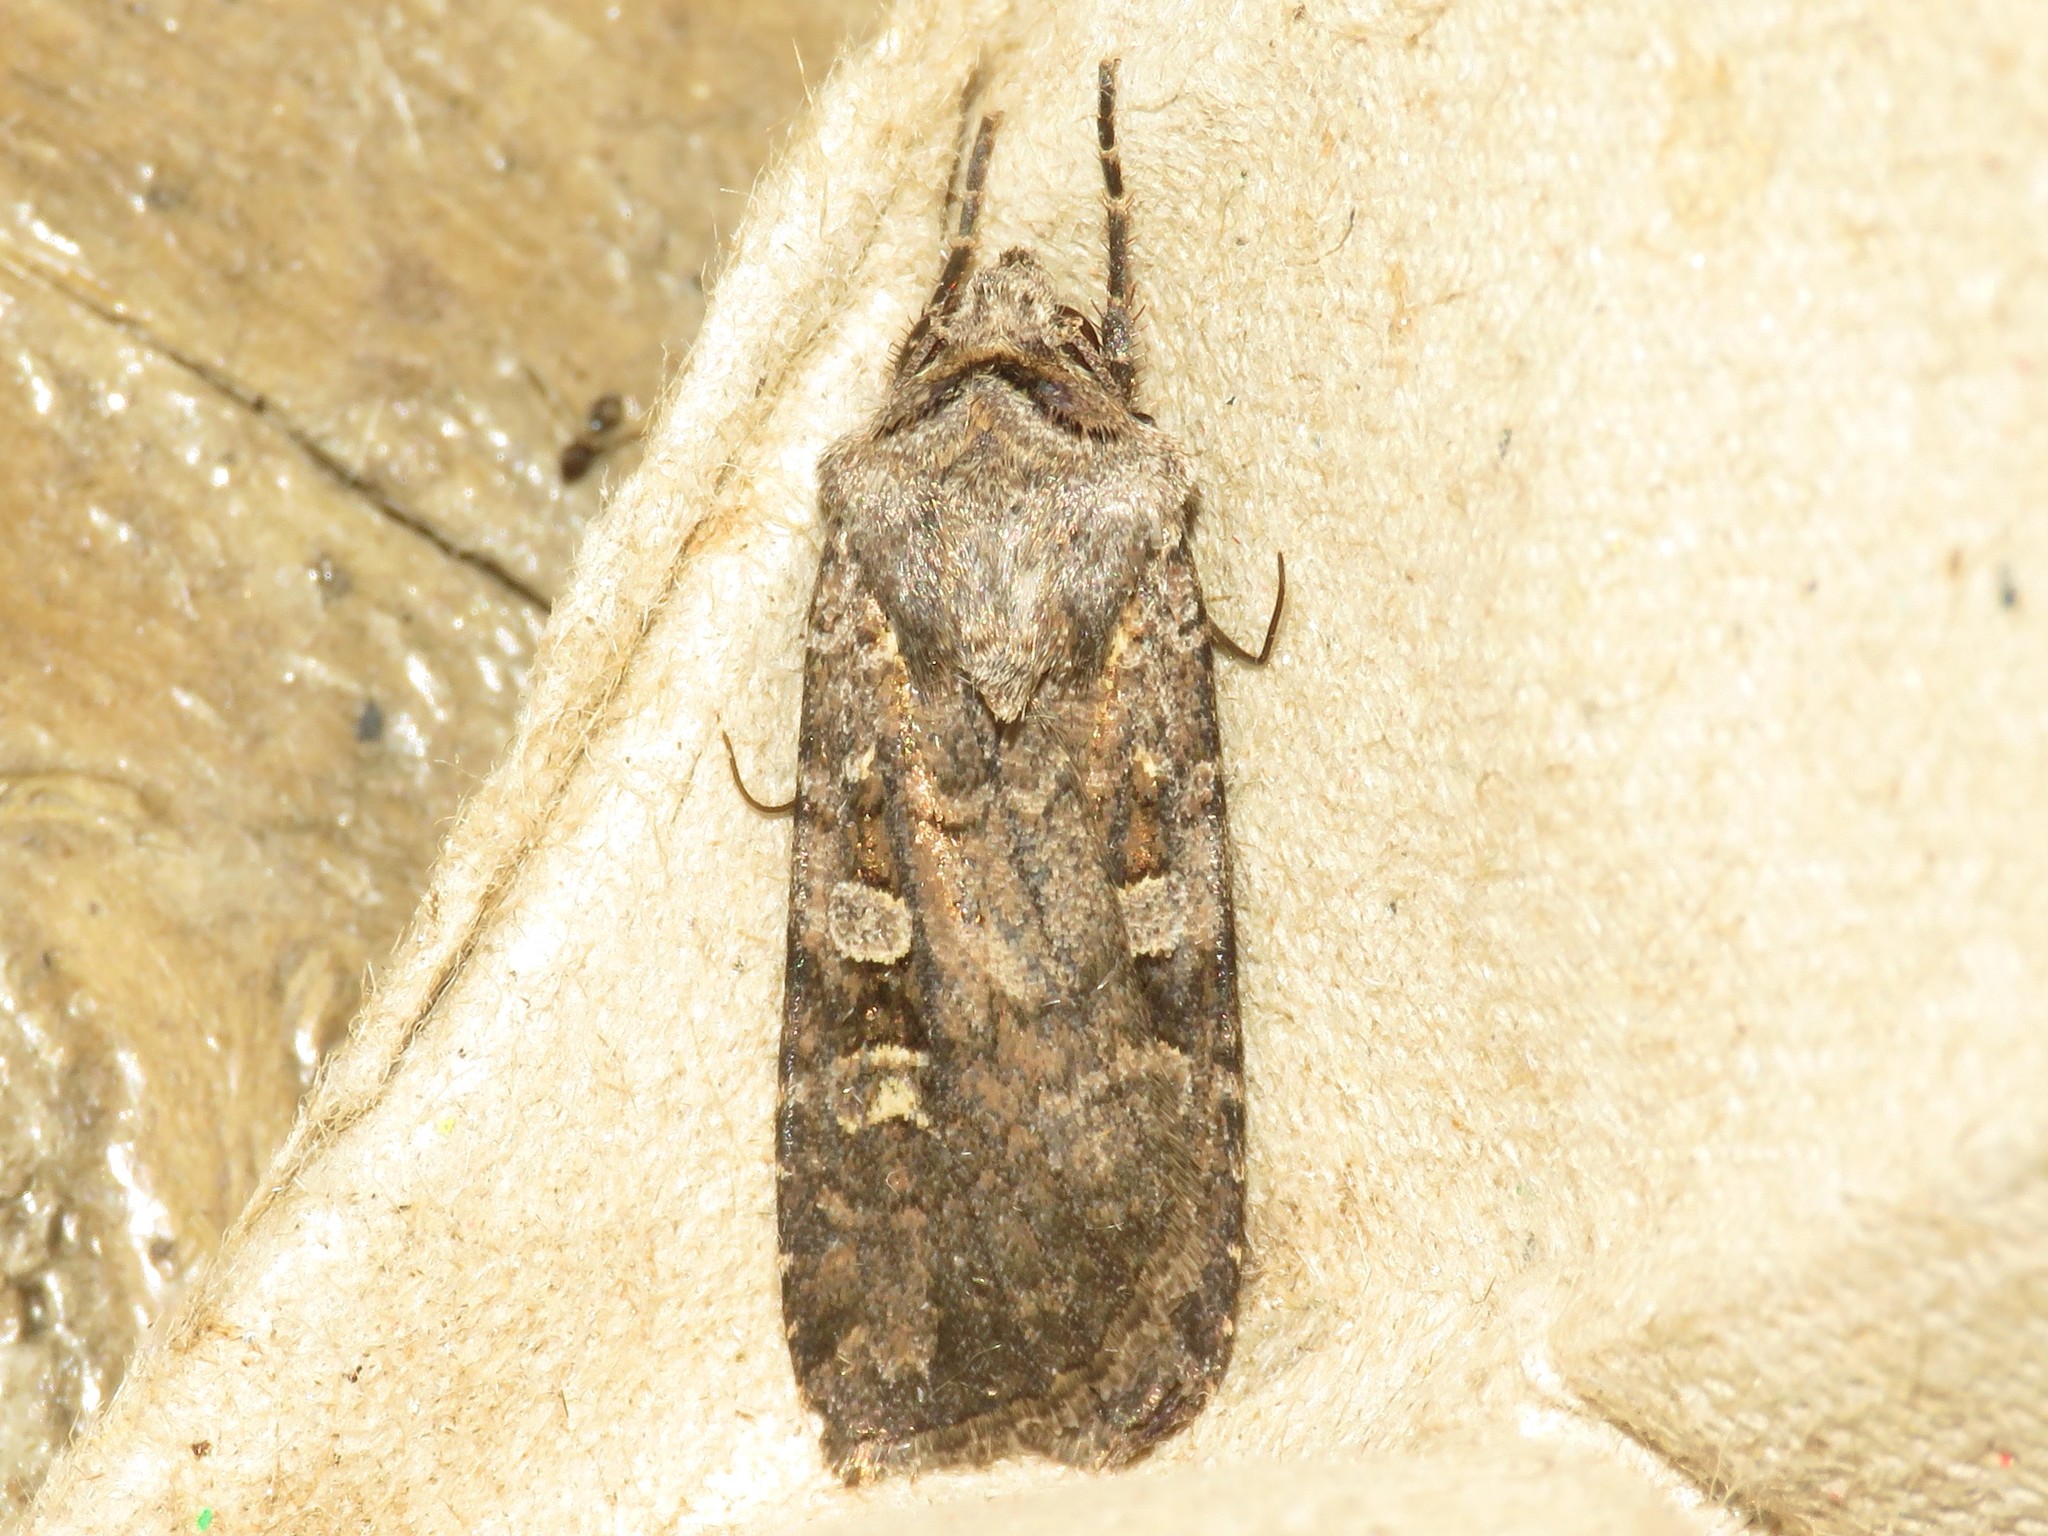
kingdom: Animalia
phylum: Arthropoda
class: Insecta
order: Lepidoptera
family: Noctuidae
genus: Euxoa
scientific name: Euxoa tessellata
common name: Striped cutworm
